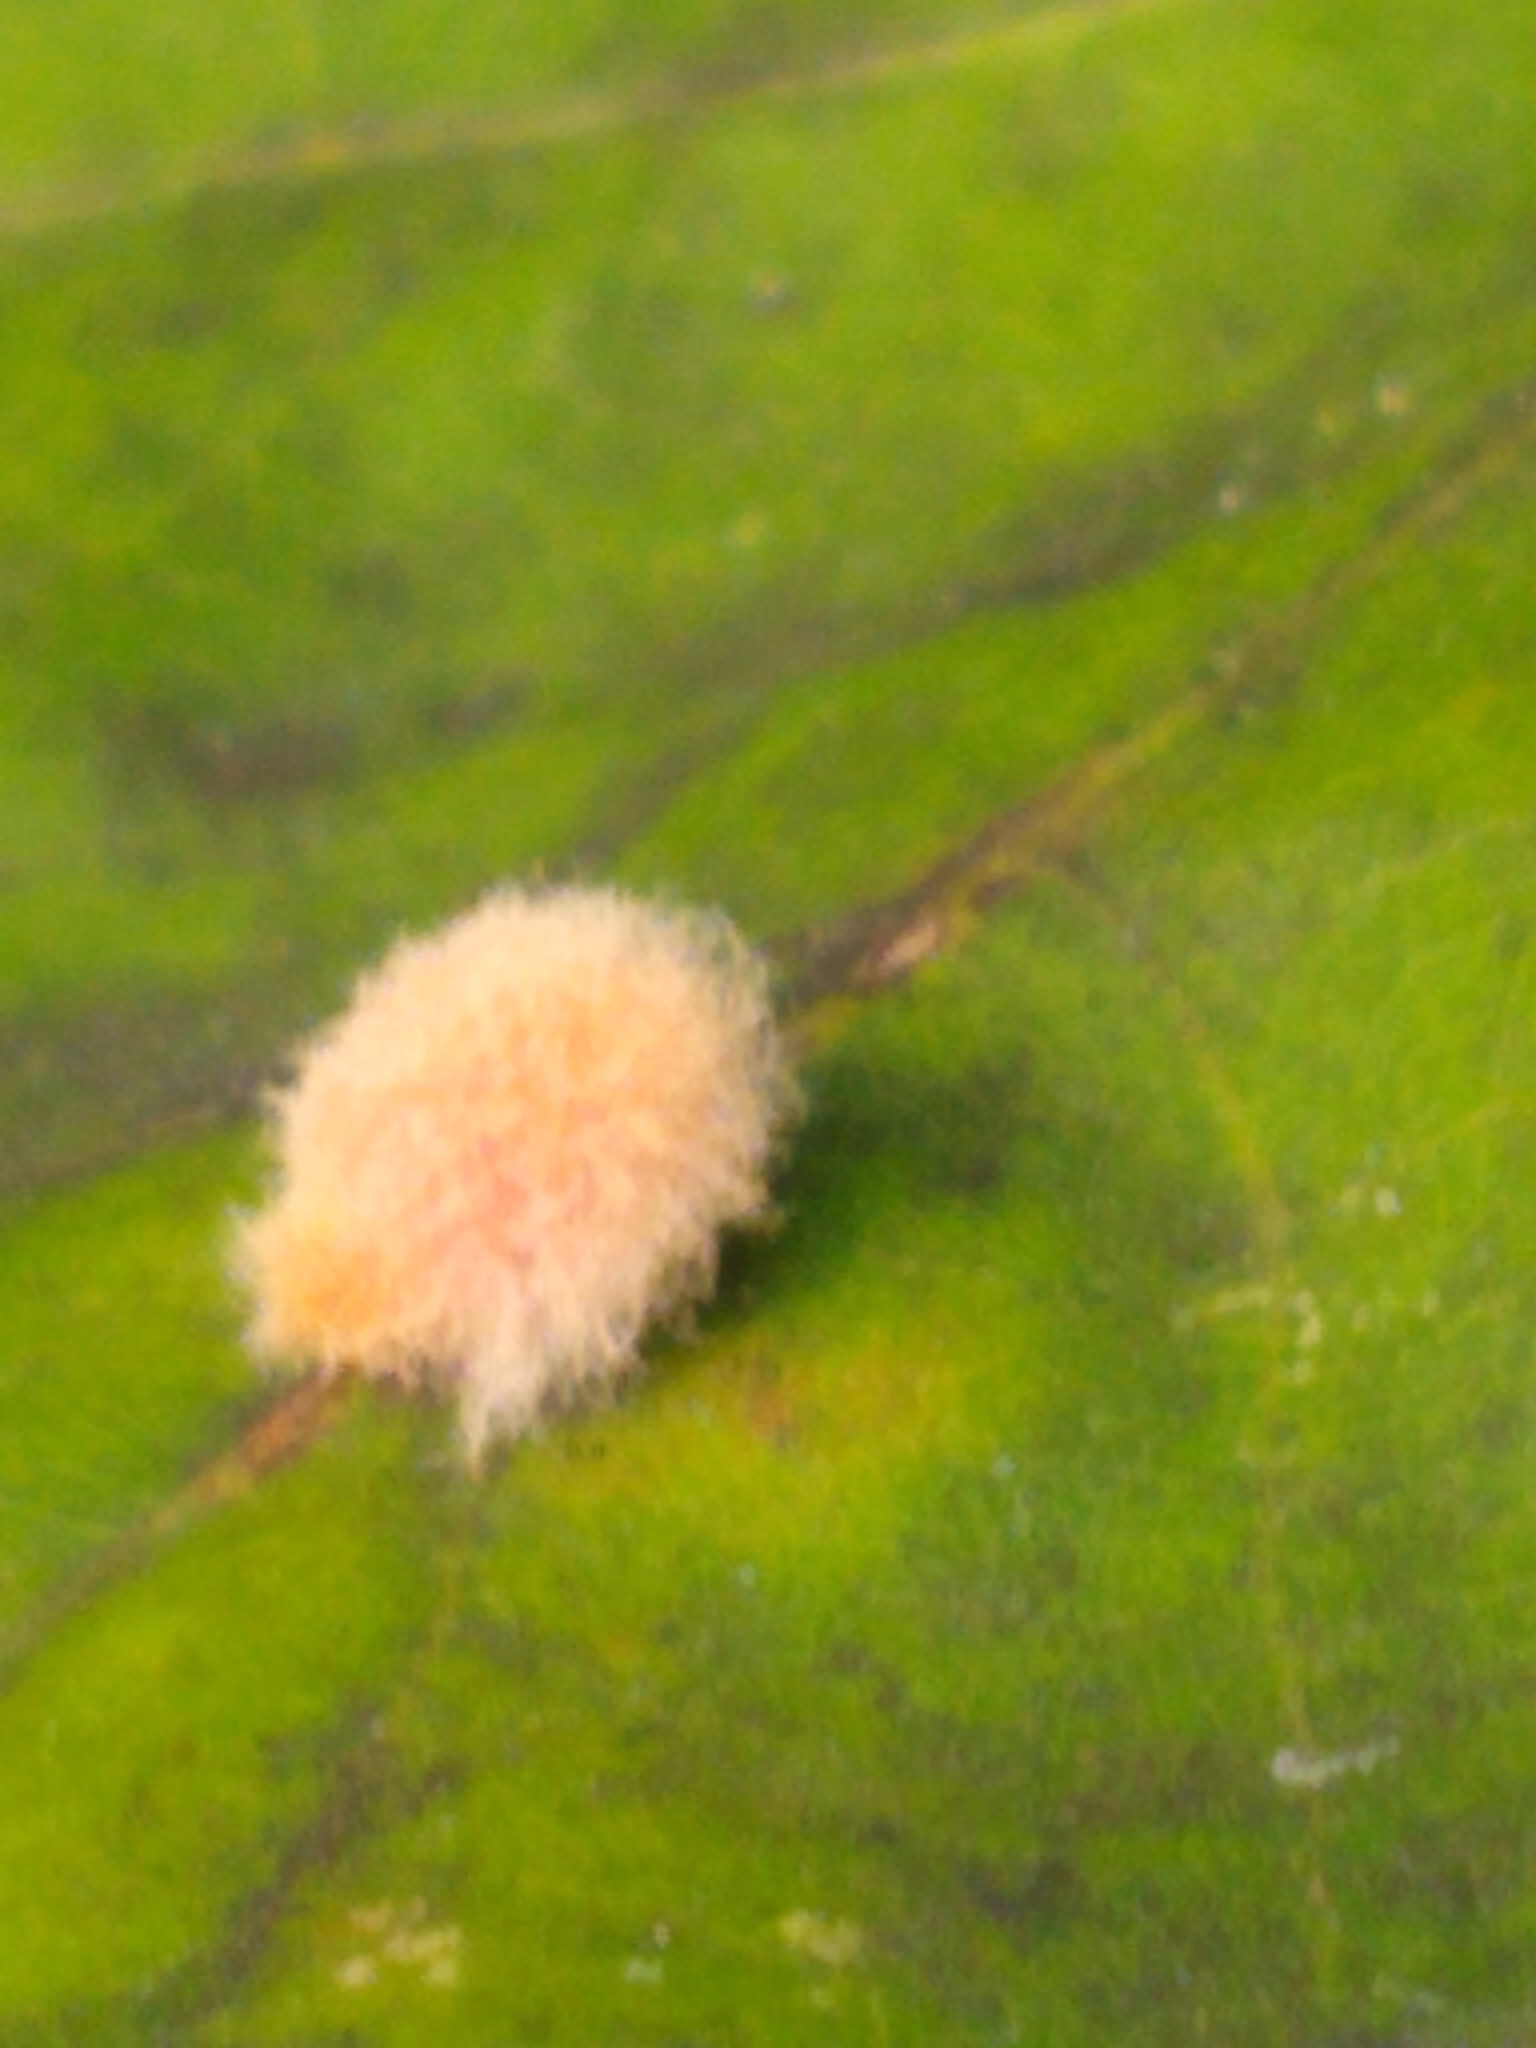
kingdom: Animalia
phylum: Arthropoda
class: Insecta
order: Hymenoptera
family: Cynipidae
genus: Andricus
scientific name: Andricus Druon ignotum
